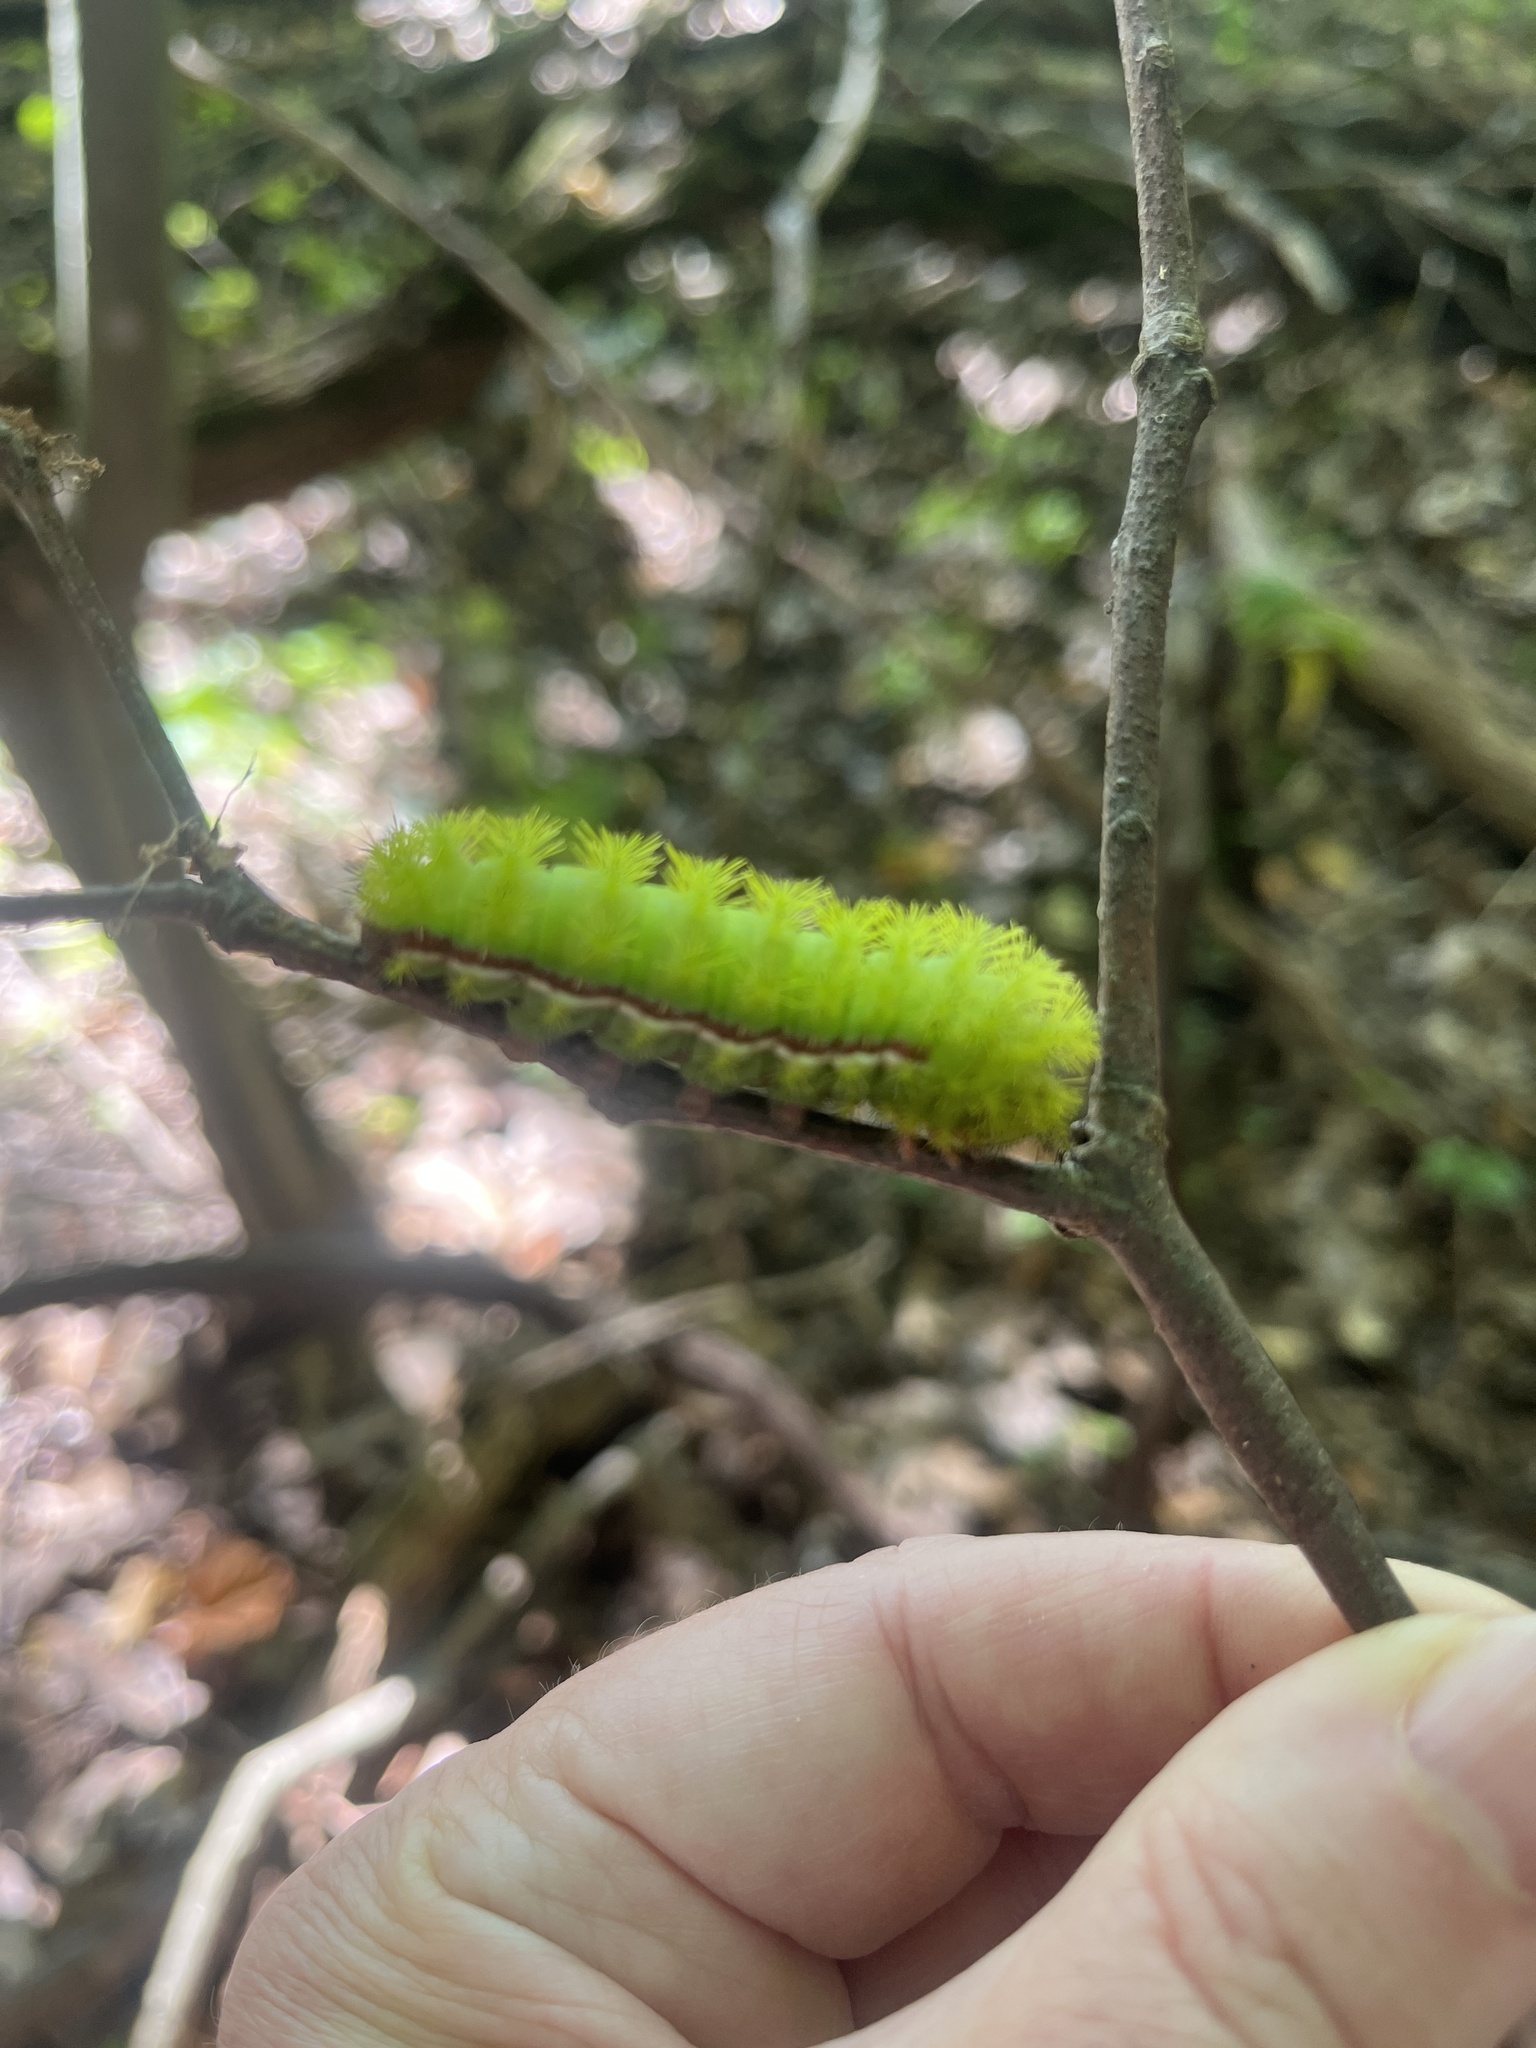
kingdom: Animalia
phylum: Arthropoda
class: Insecta
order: Lepidoptera
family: Saturniidae
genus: Automeris
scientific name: Automeris io
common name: Io moth
